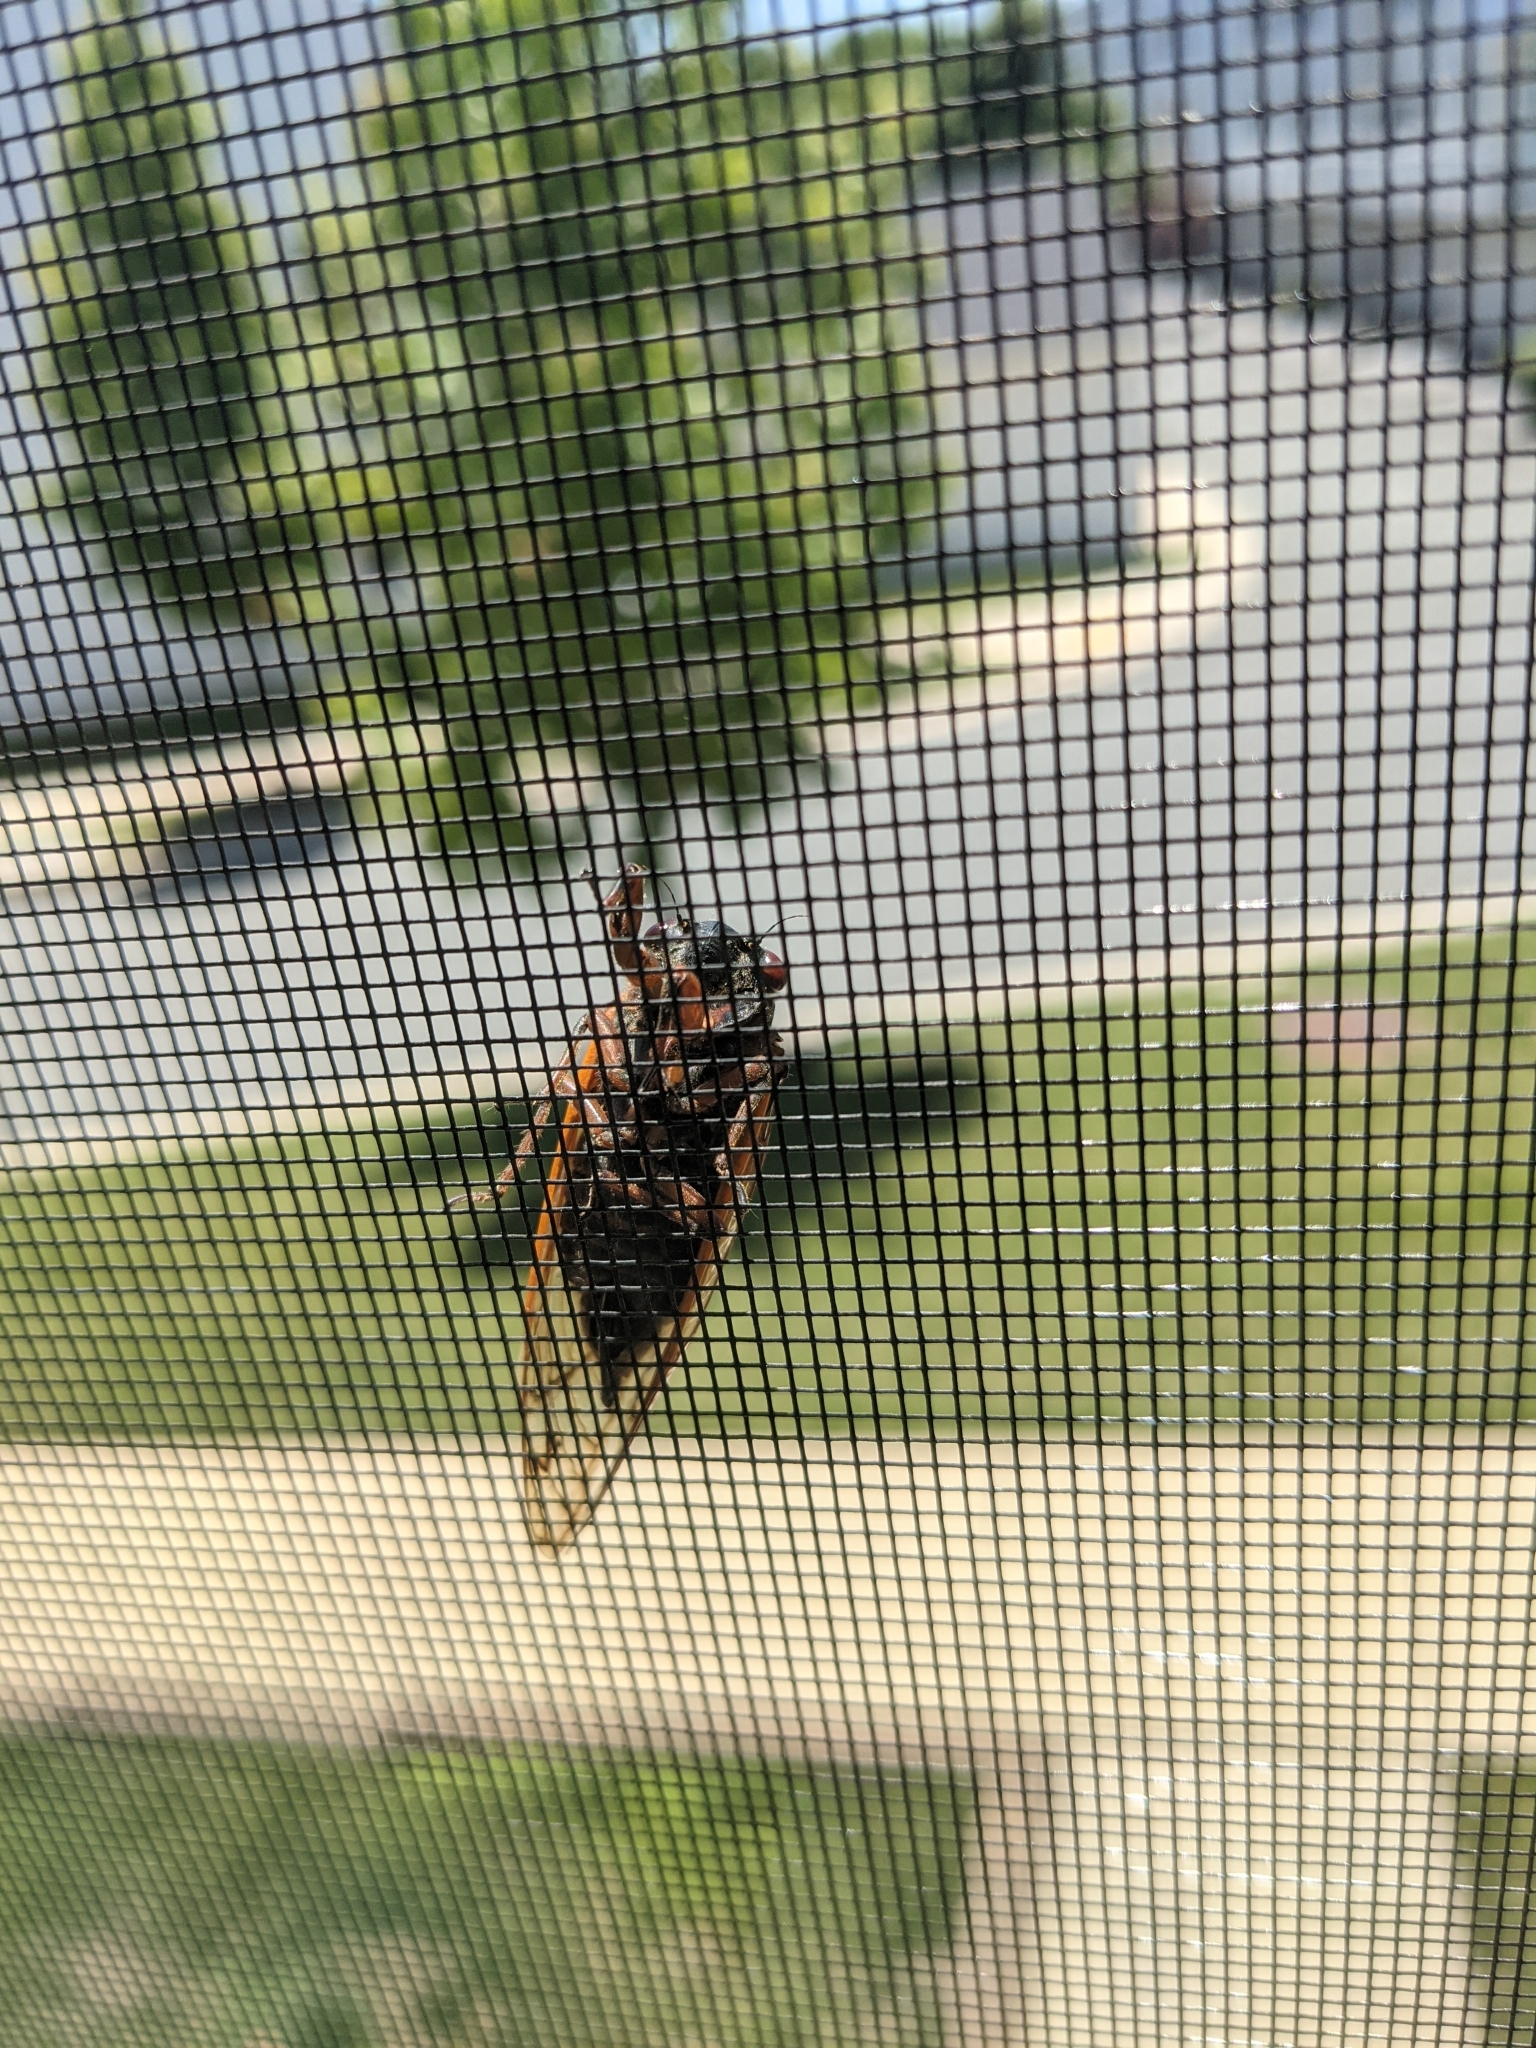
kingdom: Animalia
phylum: Arthropoda
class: Insecta
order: Hemiptera
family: Cicadidae
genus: Magicicada
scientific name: Magicicada
